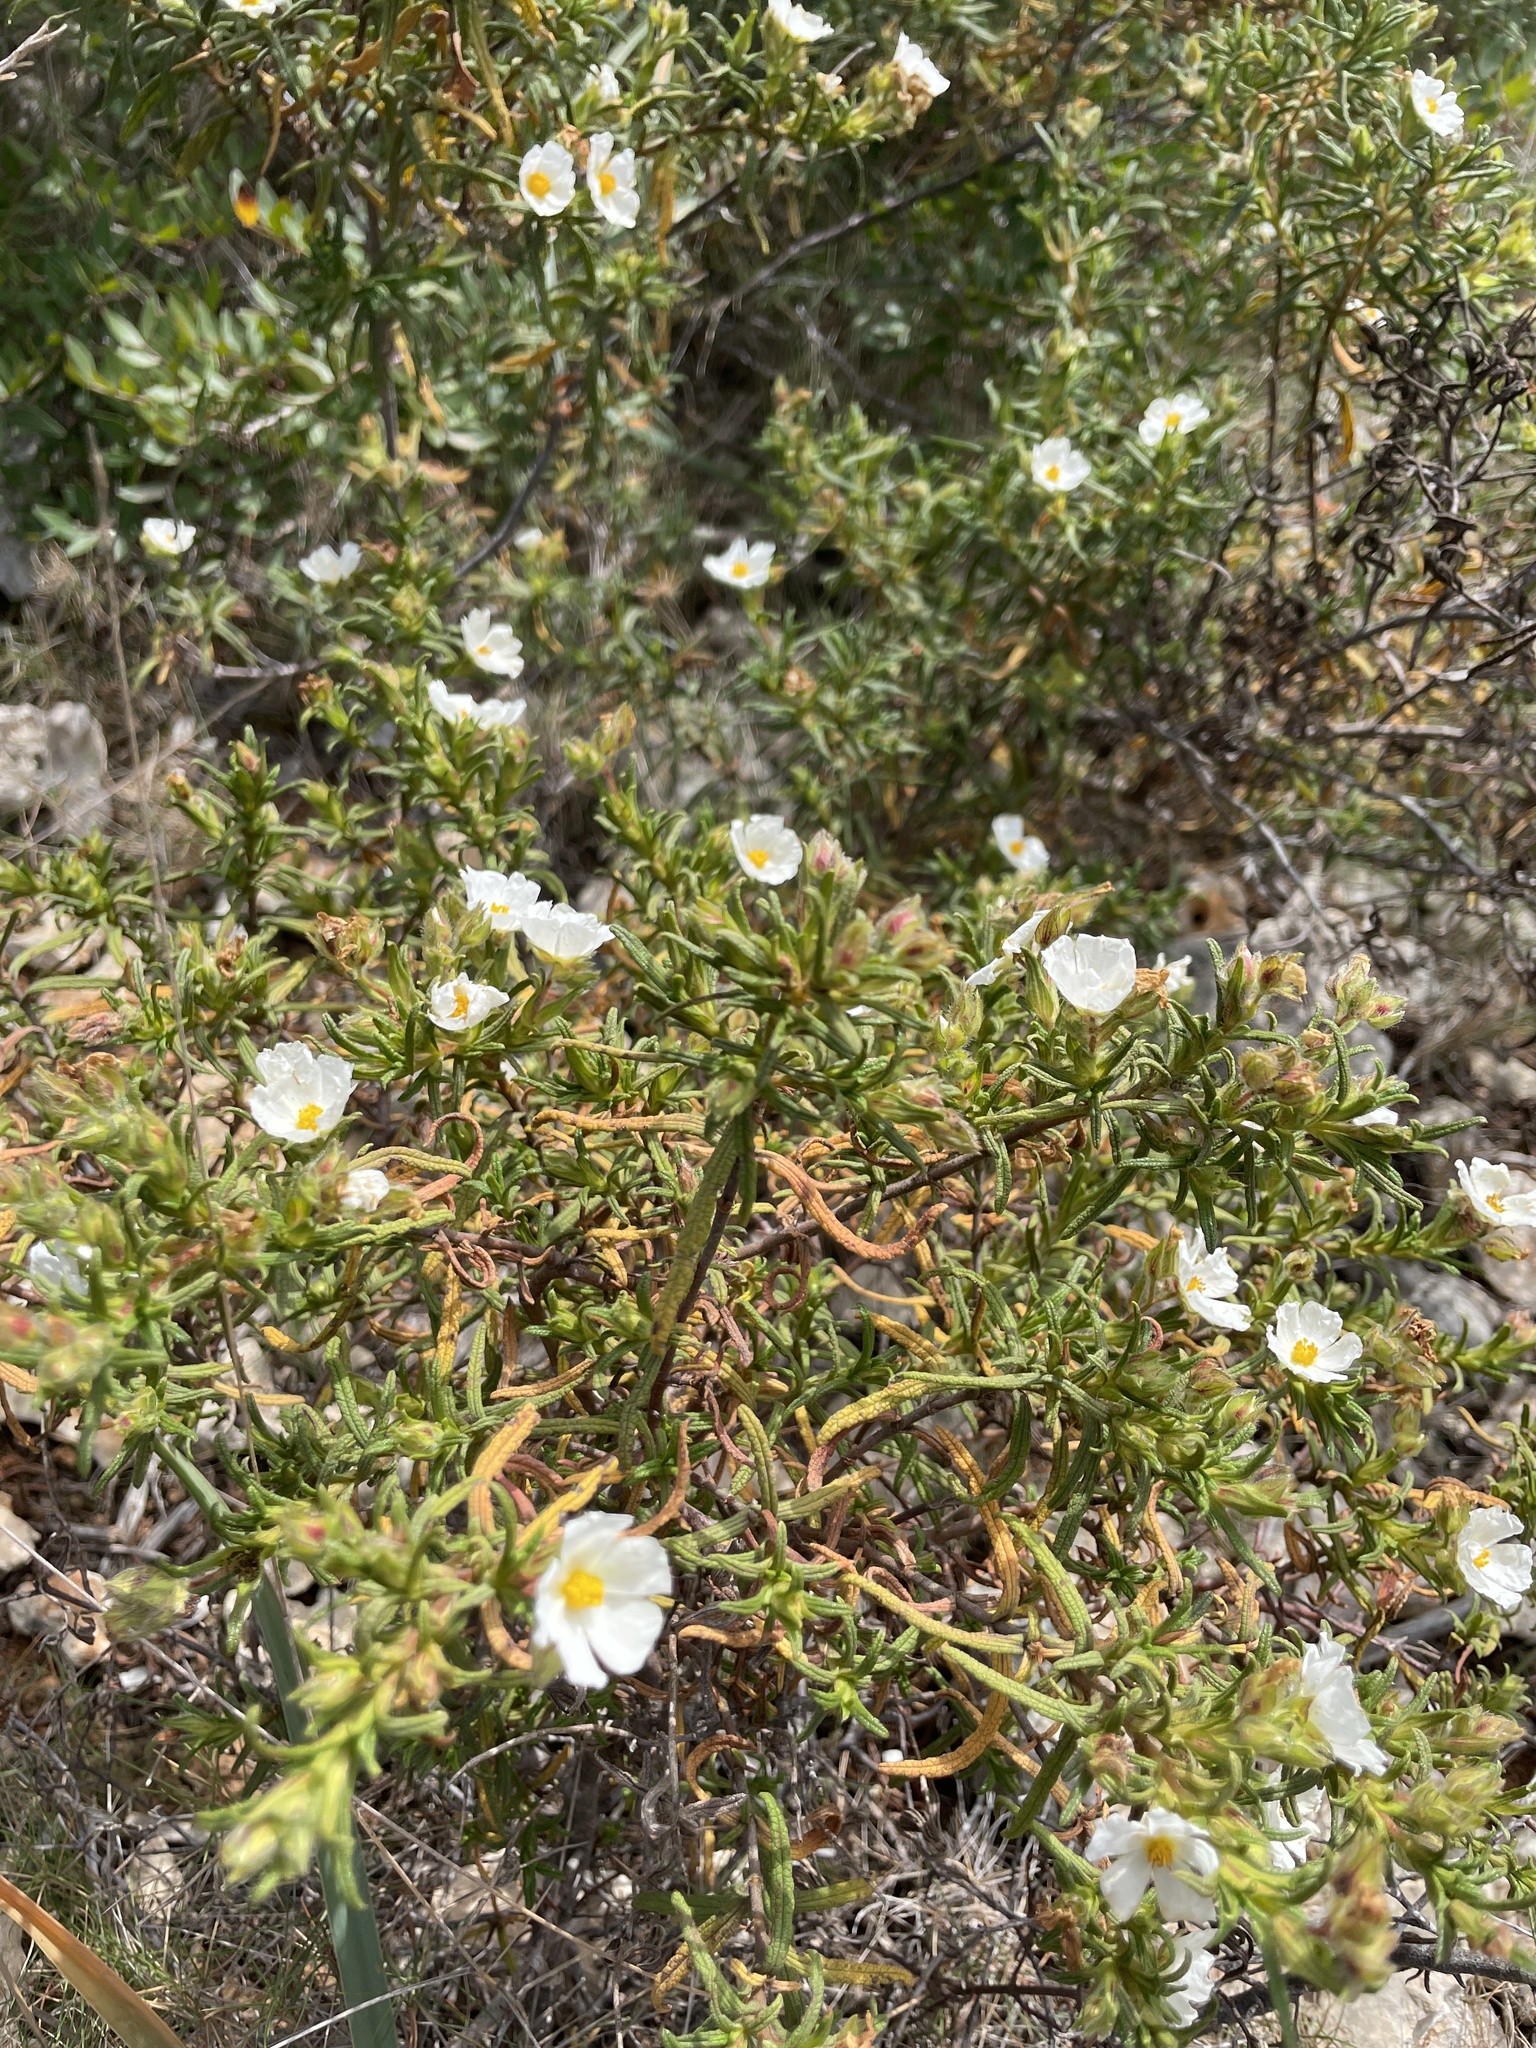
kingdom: Plantae
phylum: Tracheophyta
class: Magnoliopsida
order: Malvales
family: Cistaceae
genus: Cistus
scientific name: Cistus monspeliensis
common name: Montpelier cistus
